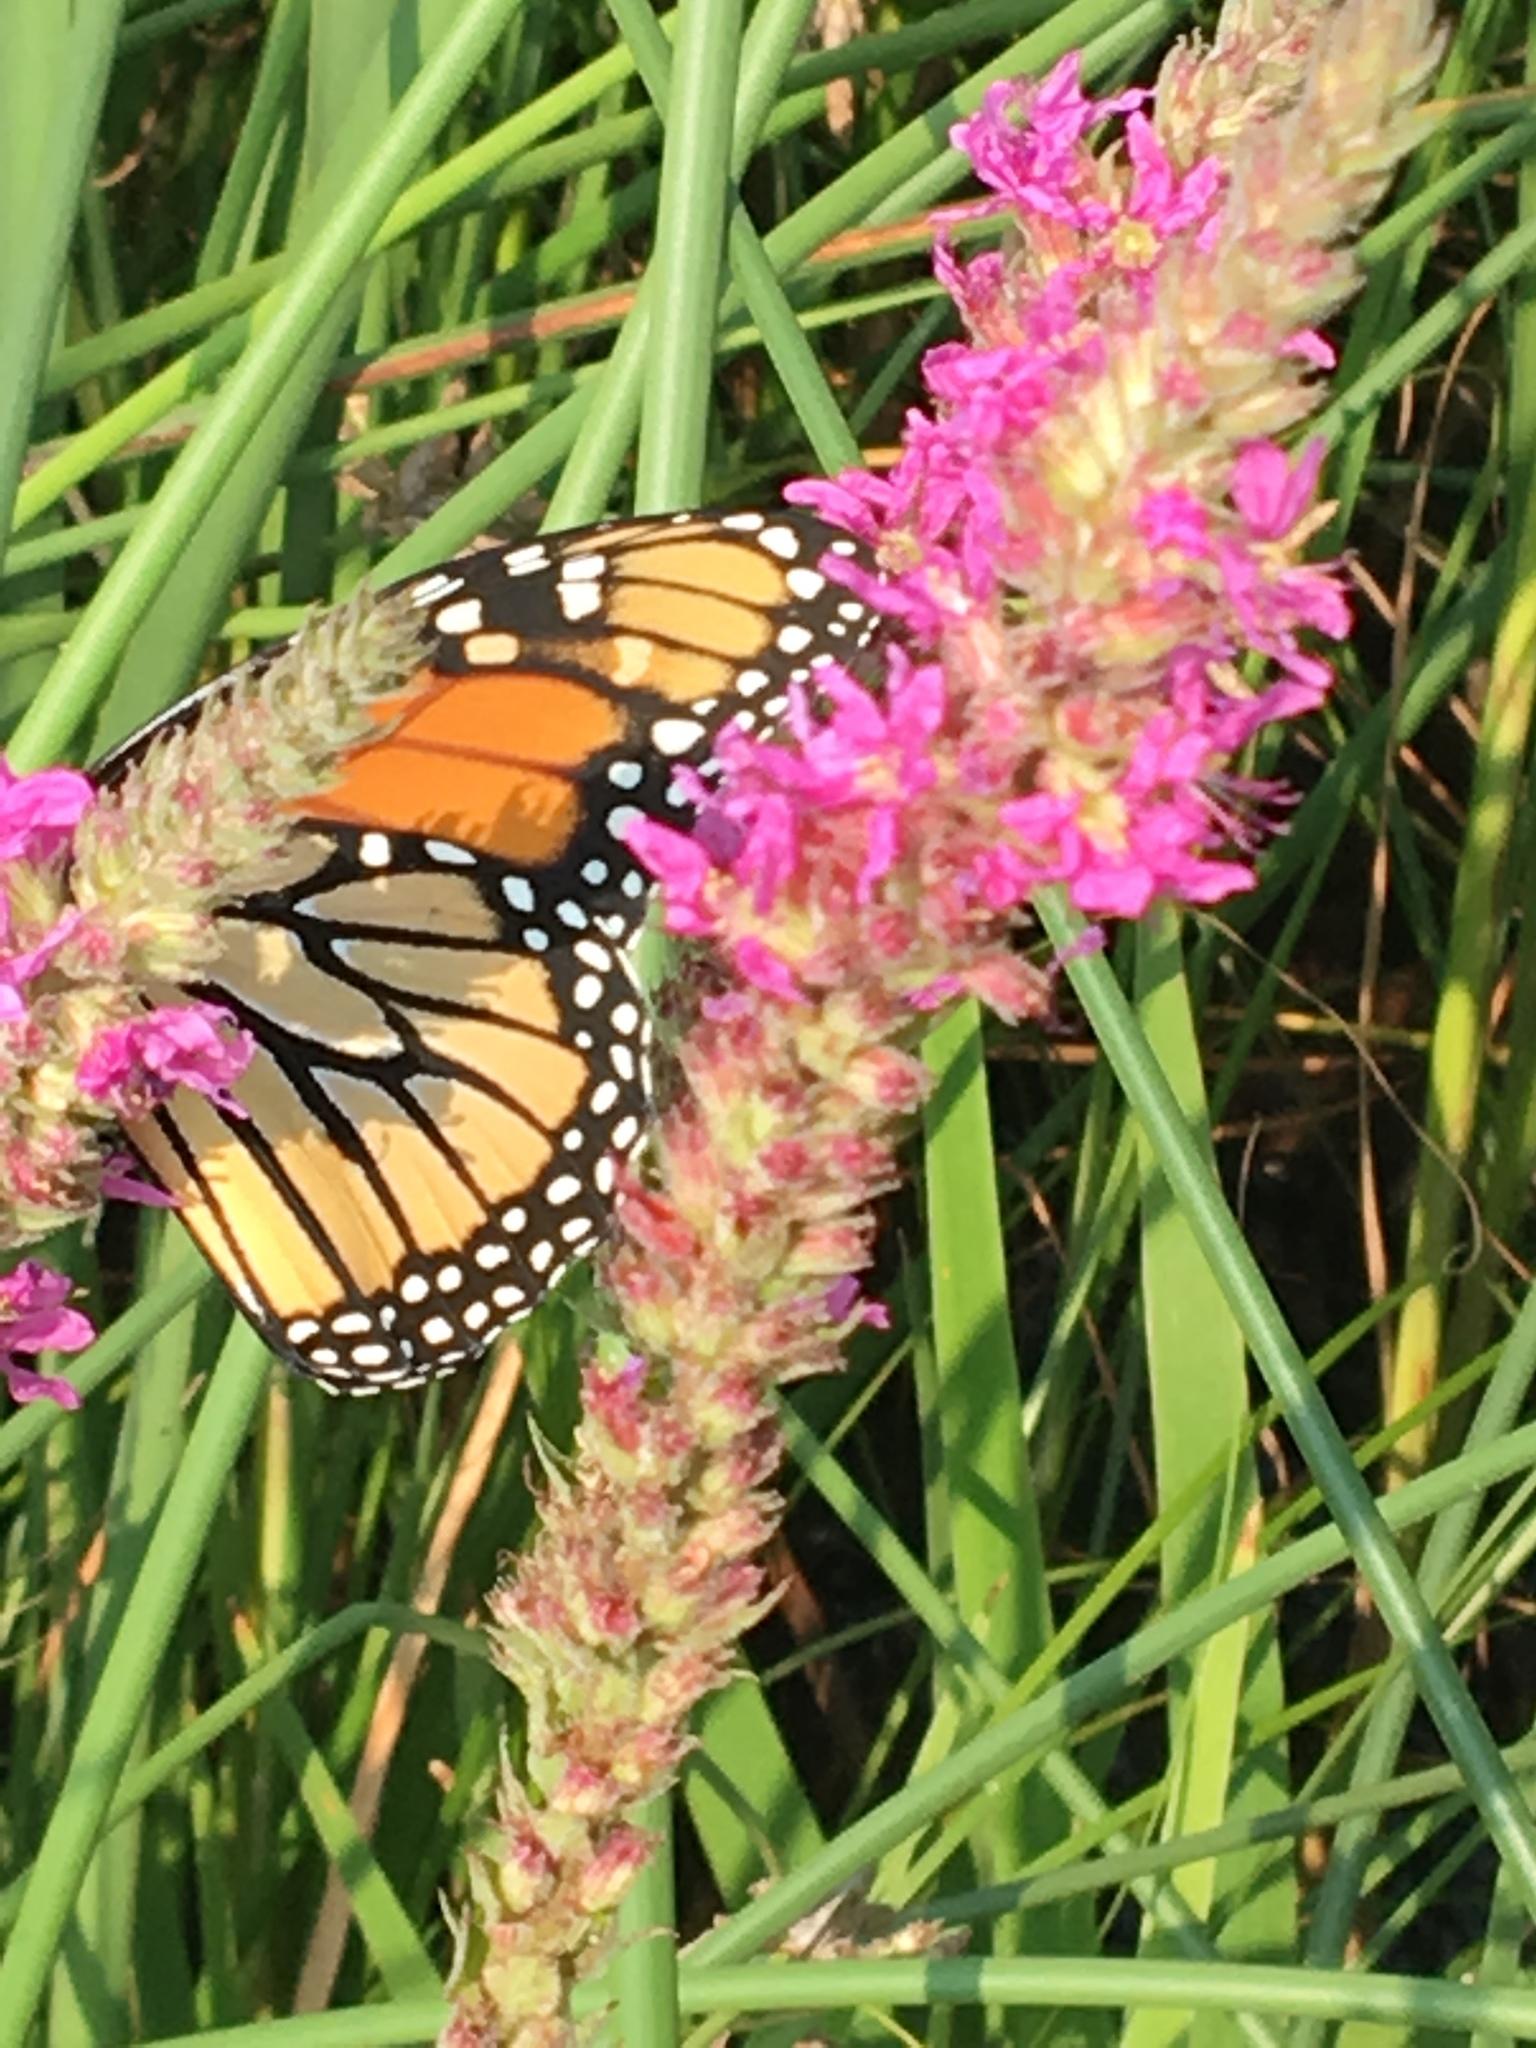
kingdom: Animalia
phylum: Arthropoda
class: Insecta
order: Lepidoptera
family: Nymphalidae
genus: Danaus
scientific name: Danaus plexippus
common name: Monarch
